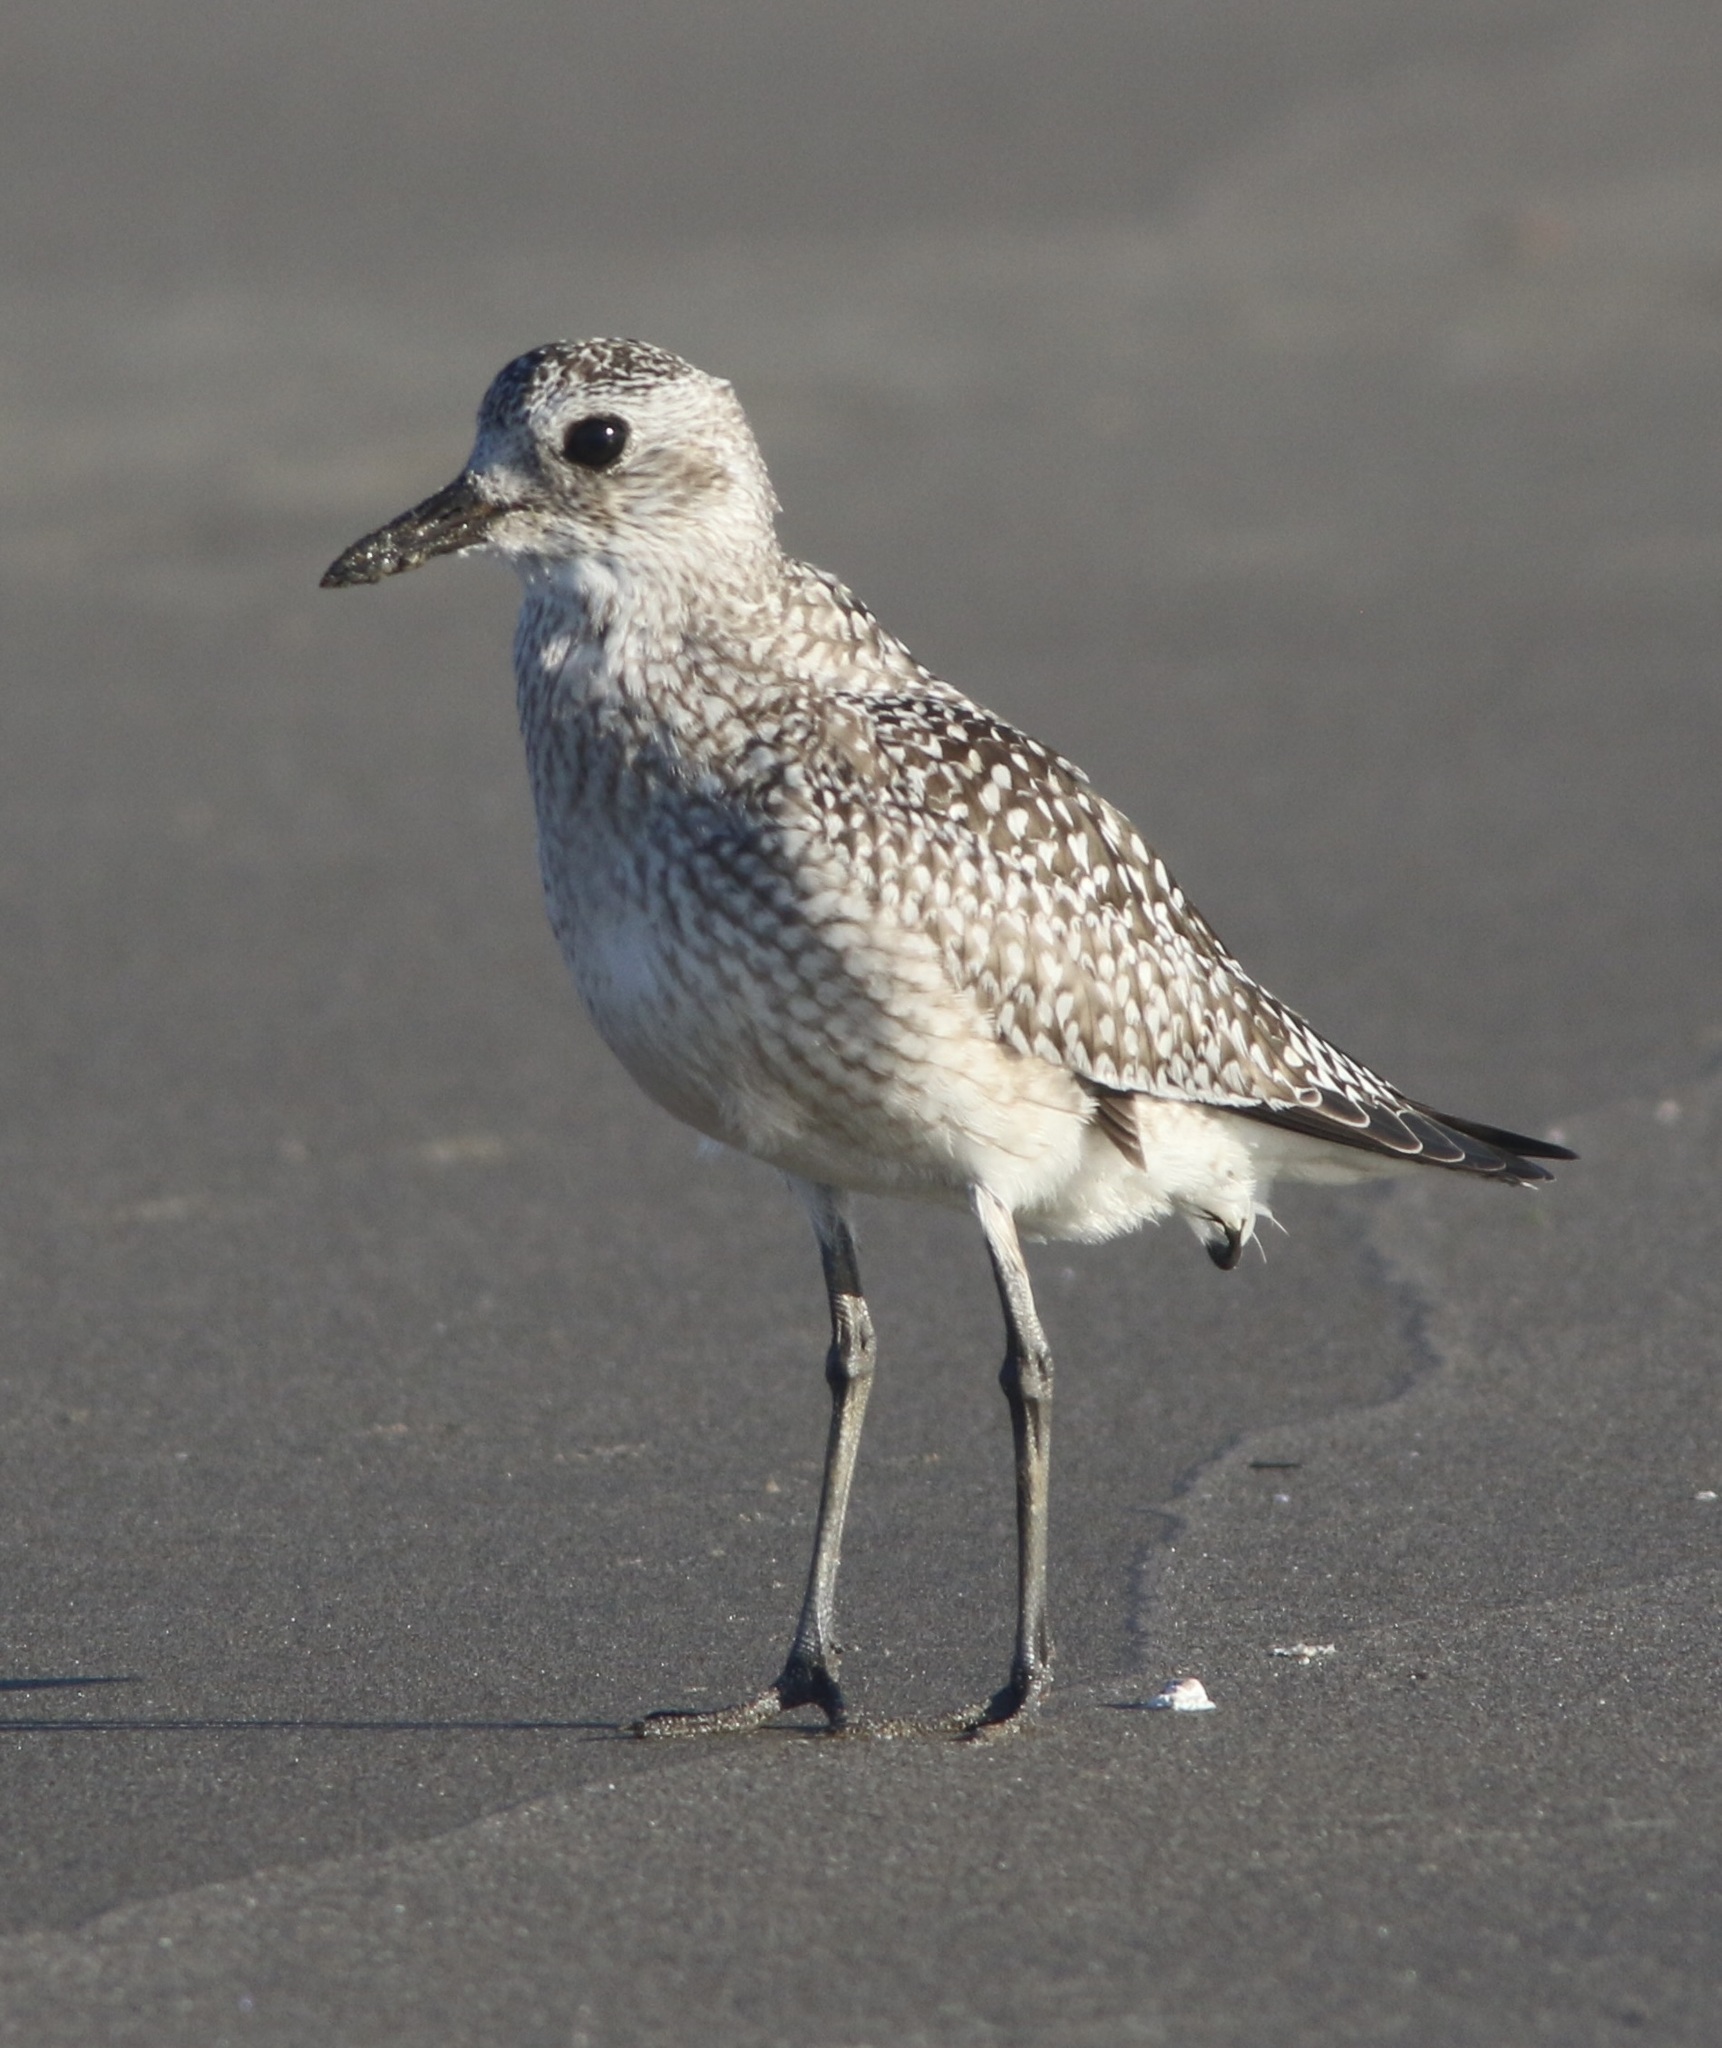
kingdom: Animalia
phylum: Chordata
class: Aves
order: Charadriiformes
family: Charadriidae
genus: Pluvialis
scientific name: Pluvialis squatarola
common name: Grey plover
